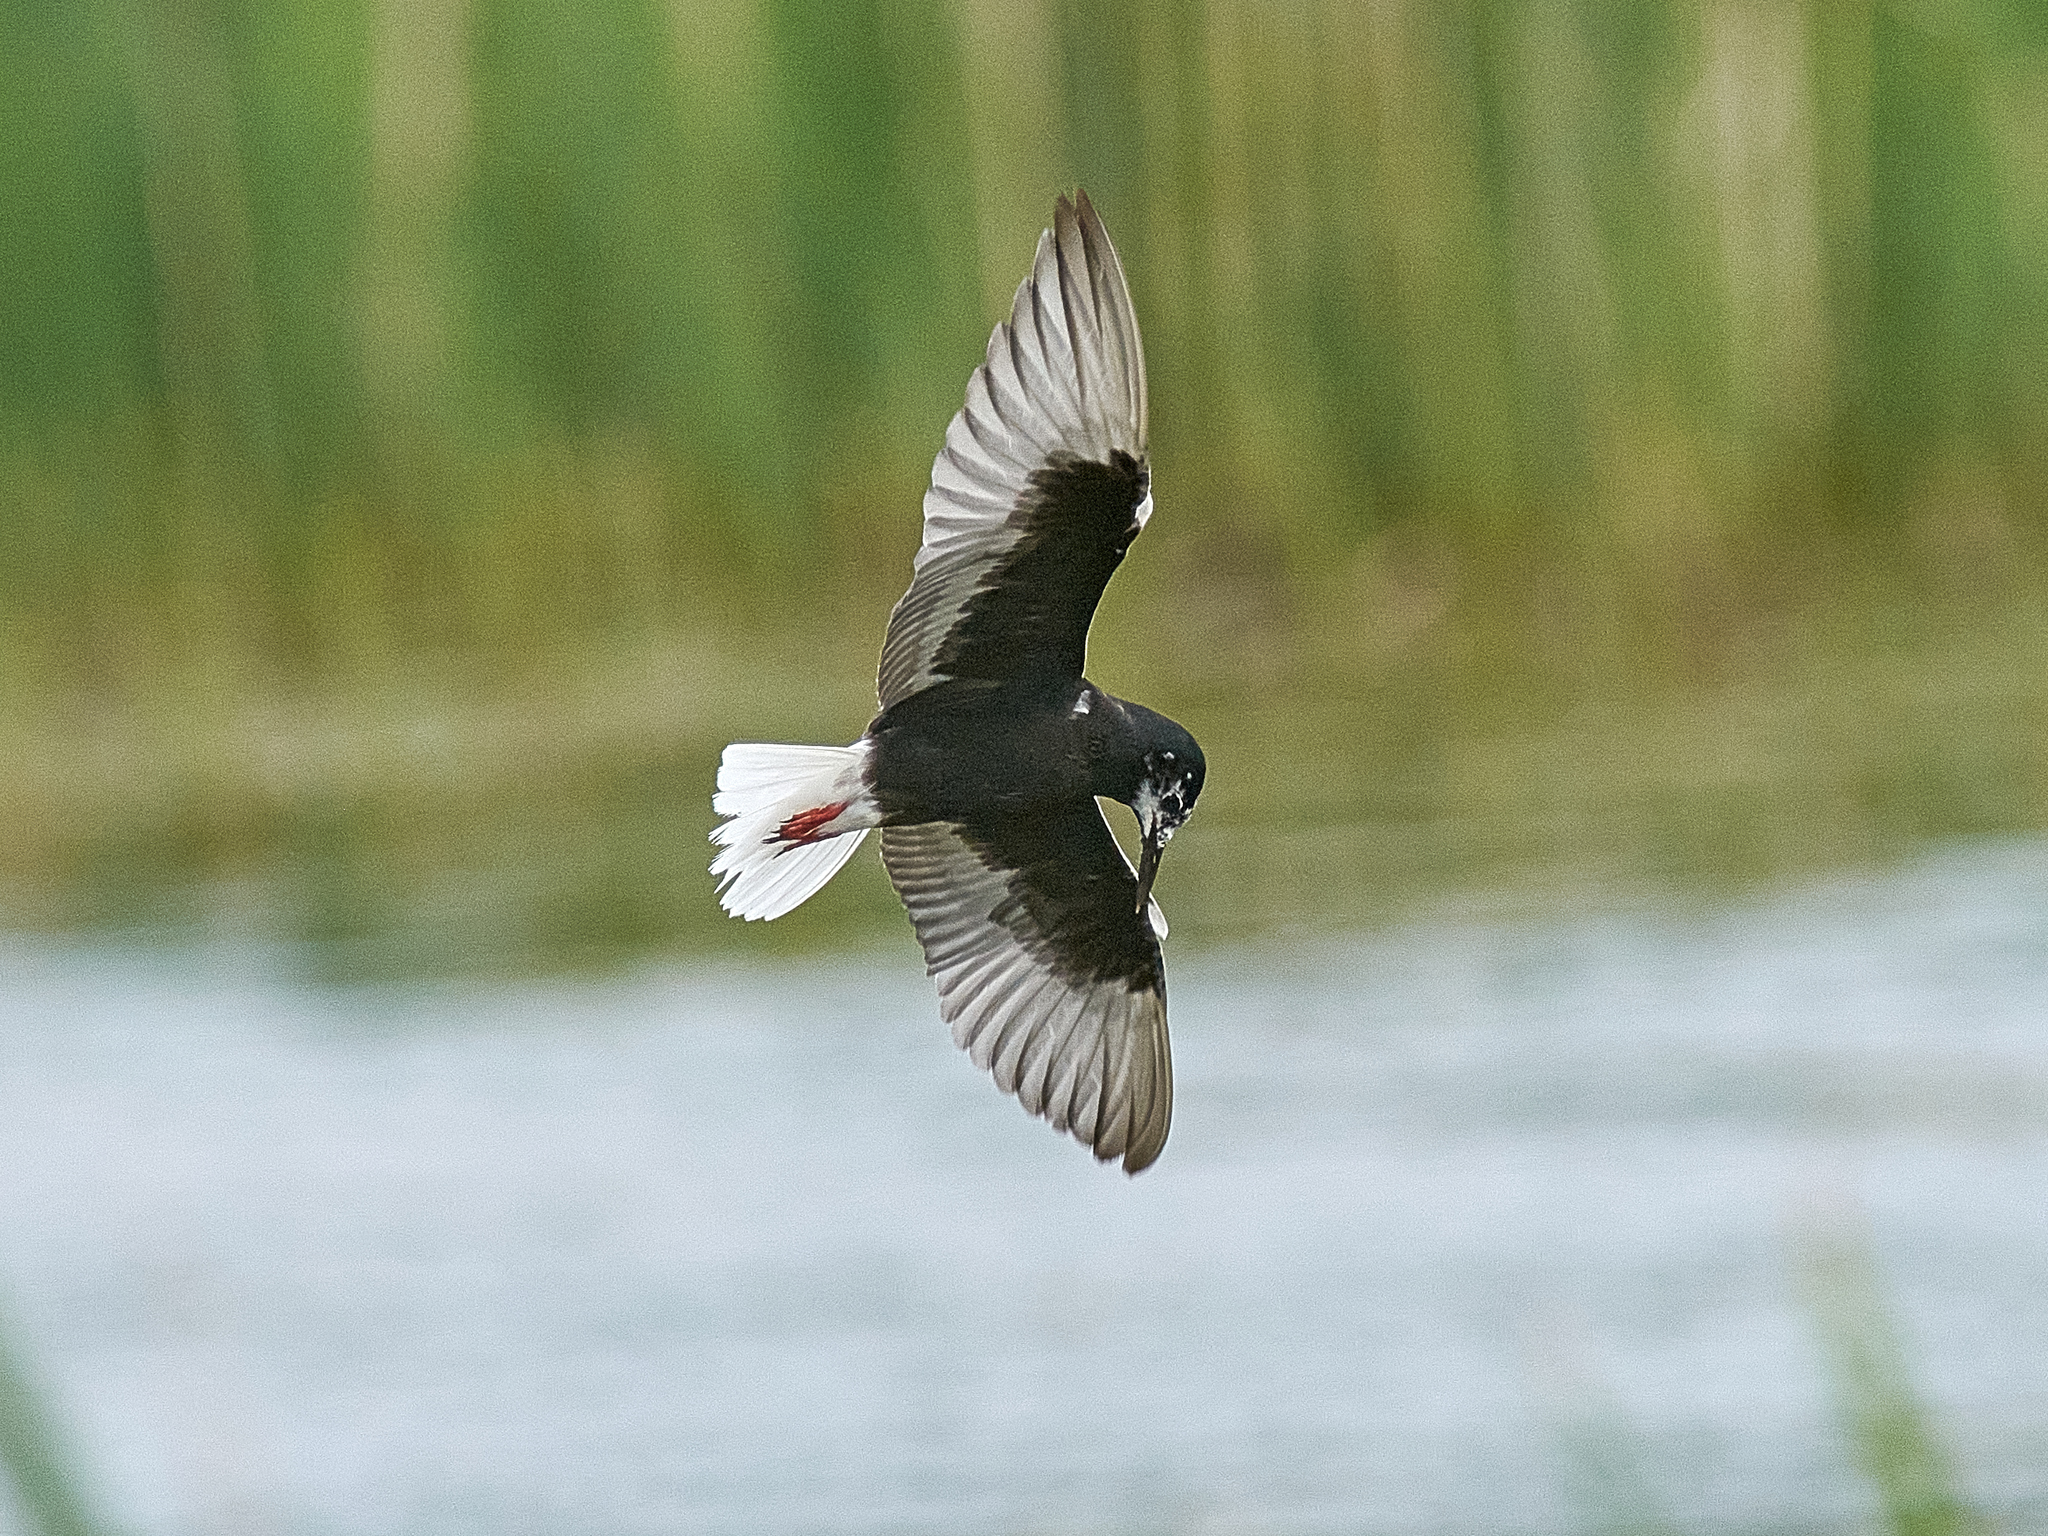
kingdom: Animalia
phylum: Chordata
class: Aves
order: Charadriiformes
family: Laridae
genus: Chlidonias
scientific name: Chlidonias leucopterus
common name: White-winged tern
